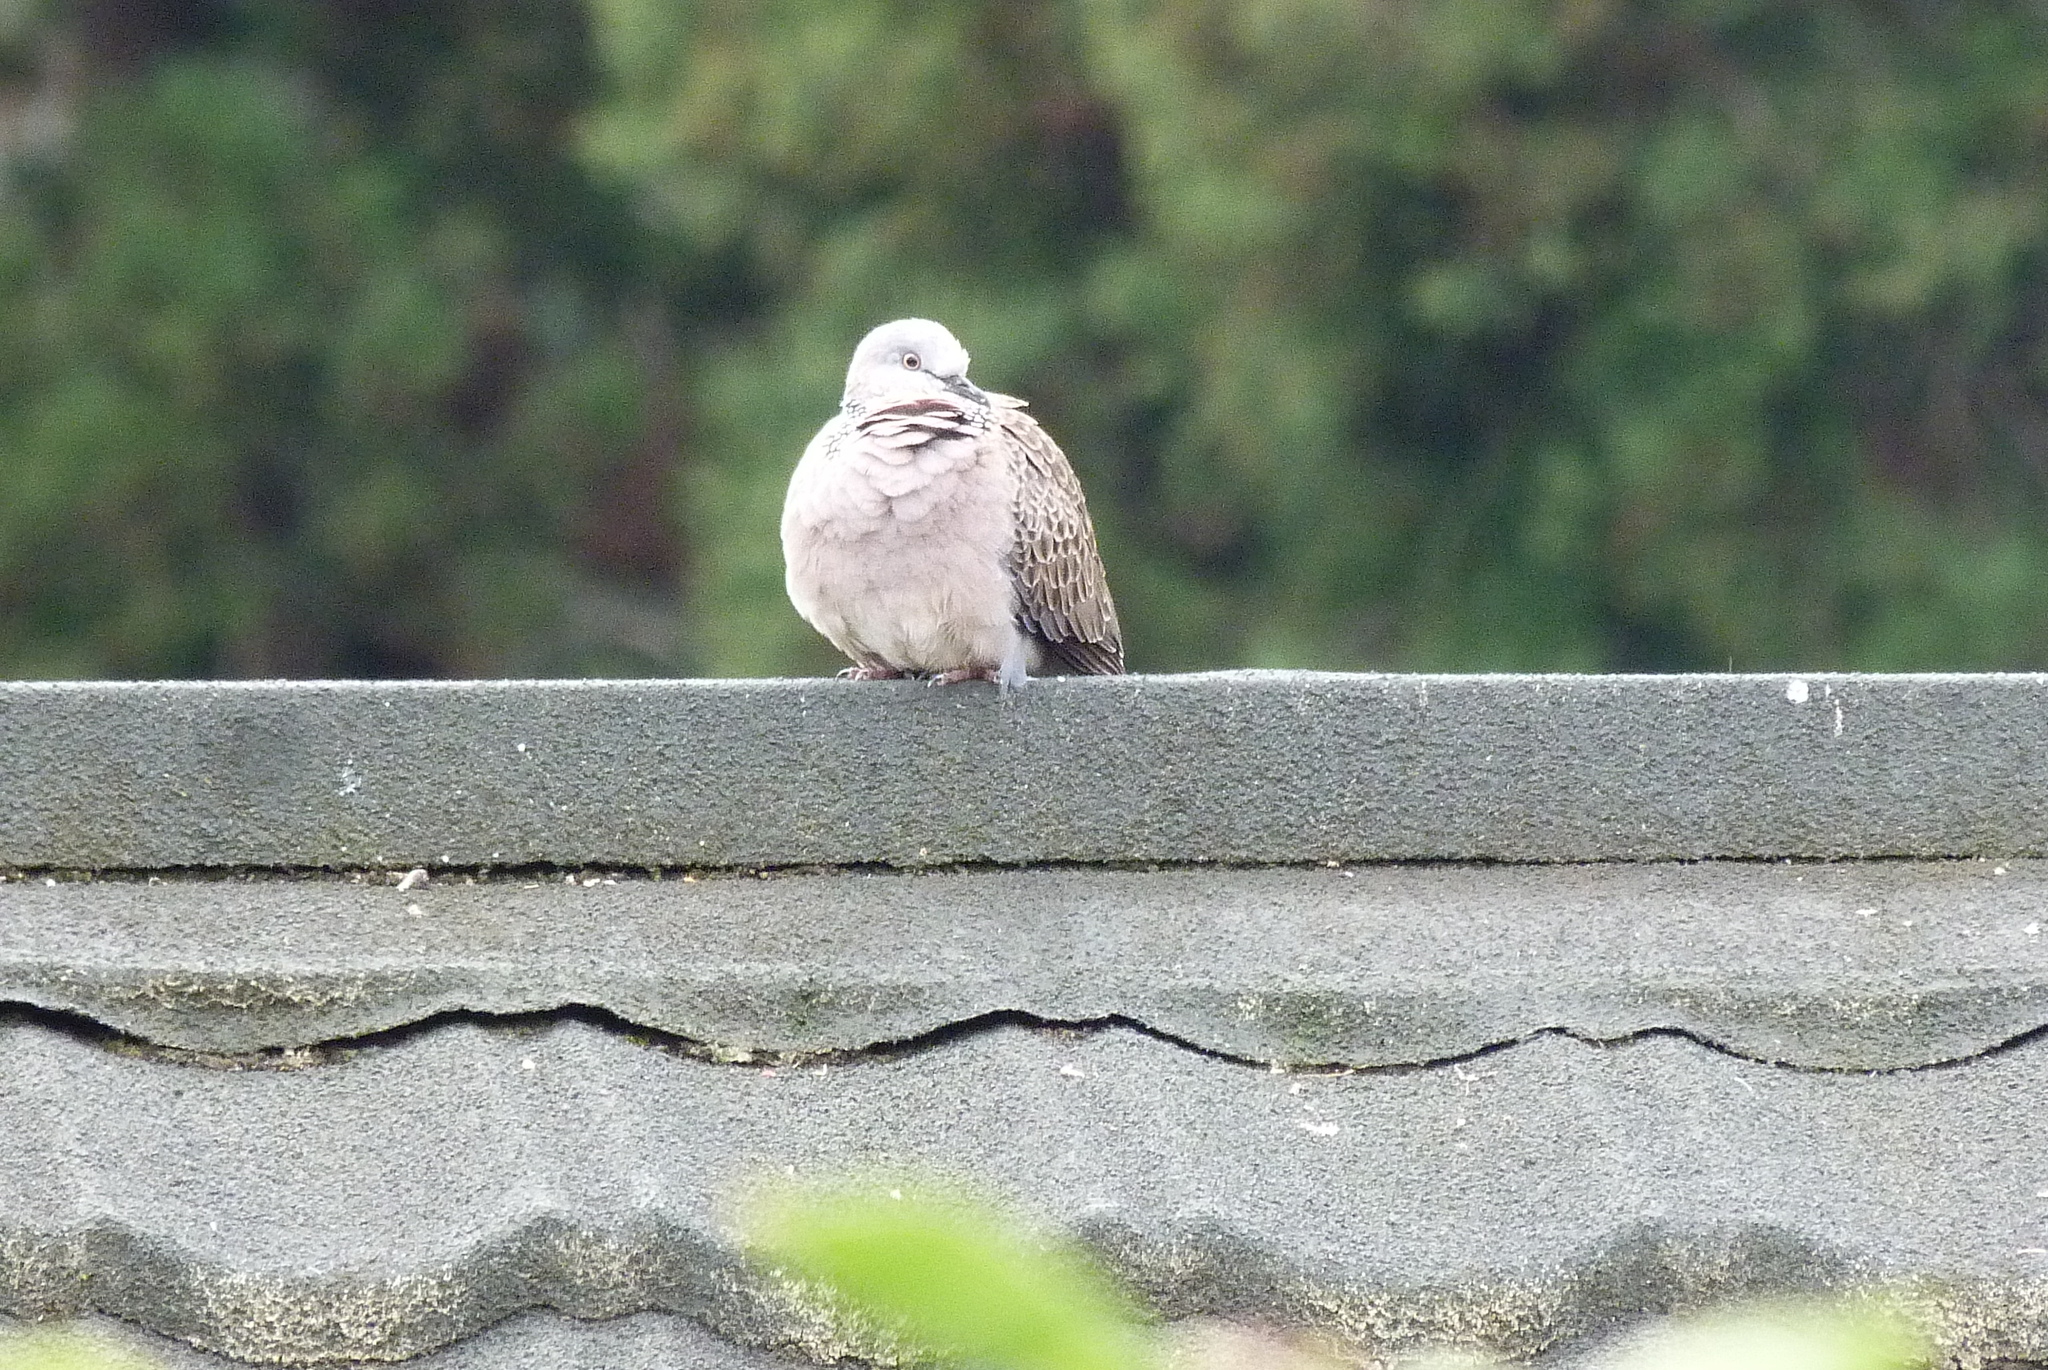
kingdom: Animalia
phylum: Chordata
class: Aves
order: Columbiformes
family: Columbidae
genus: Spilopelia
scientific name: Spilopelia chinensis
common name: Spotted dove
